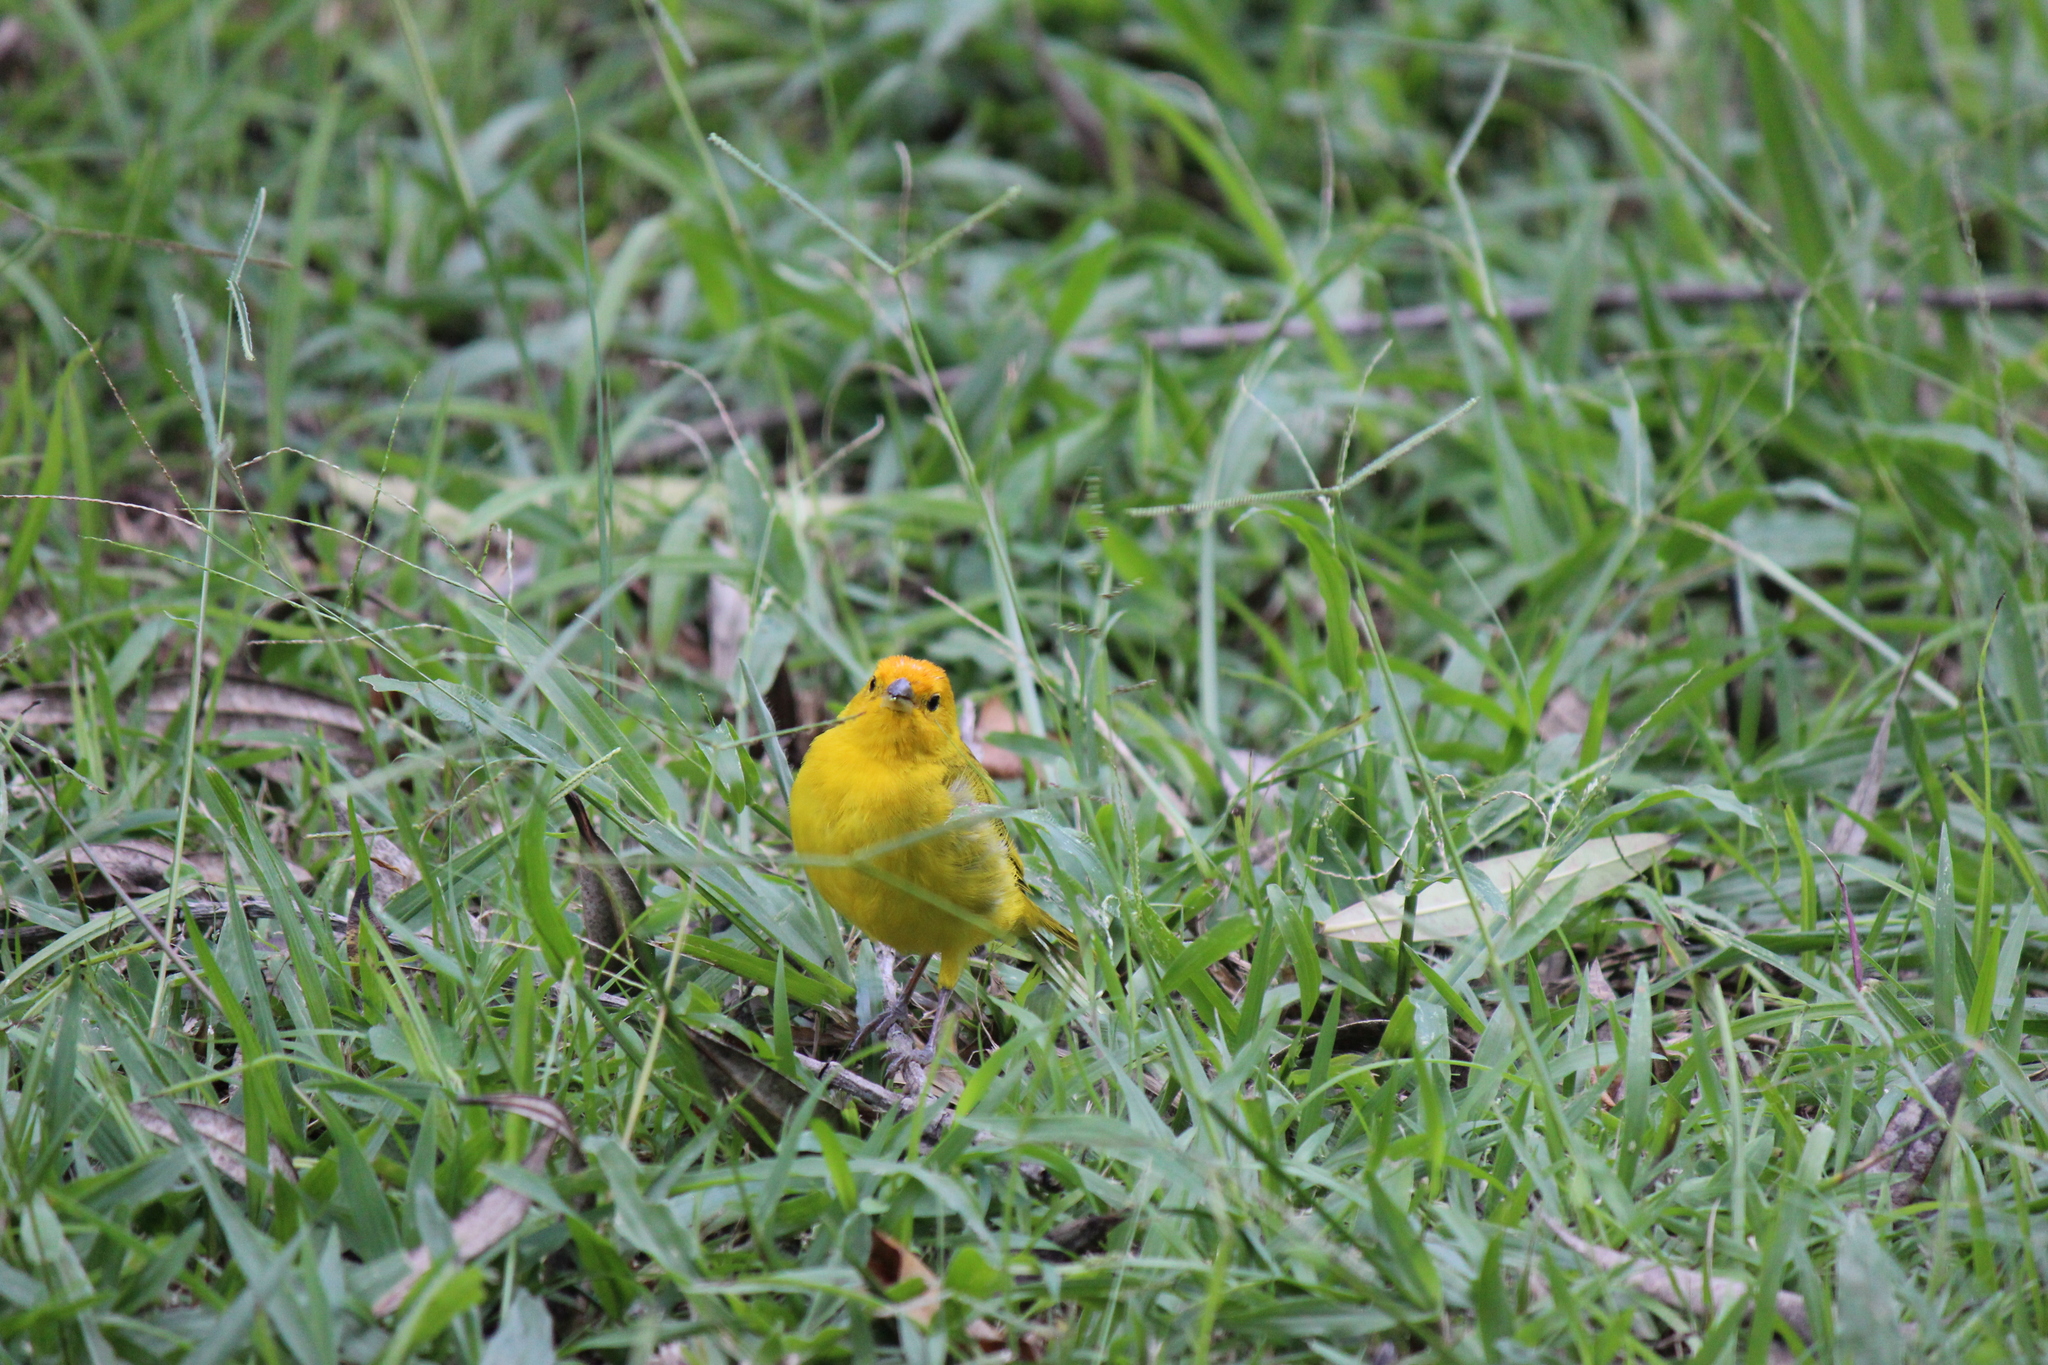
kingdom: Animalia
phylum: Chordata
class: Aves
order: Passeriformes
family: Thraupidae
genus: Sicalis
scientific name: Sicalis flaveola
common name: Saffron finch
